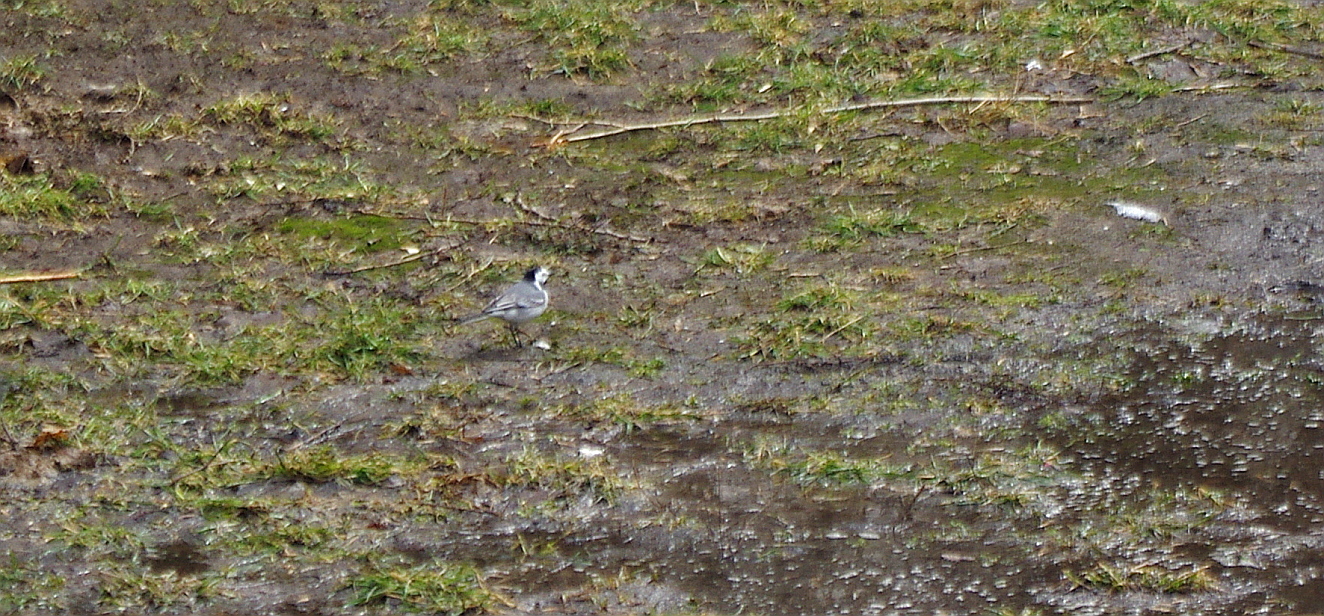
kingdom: Animalia
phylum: Chordata
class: Aves
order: Passeriformes
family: Motacillidae
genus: Motacilla
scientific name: Motacilla alba
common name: White wagtail
